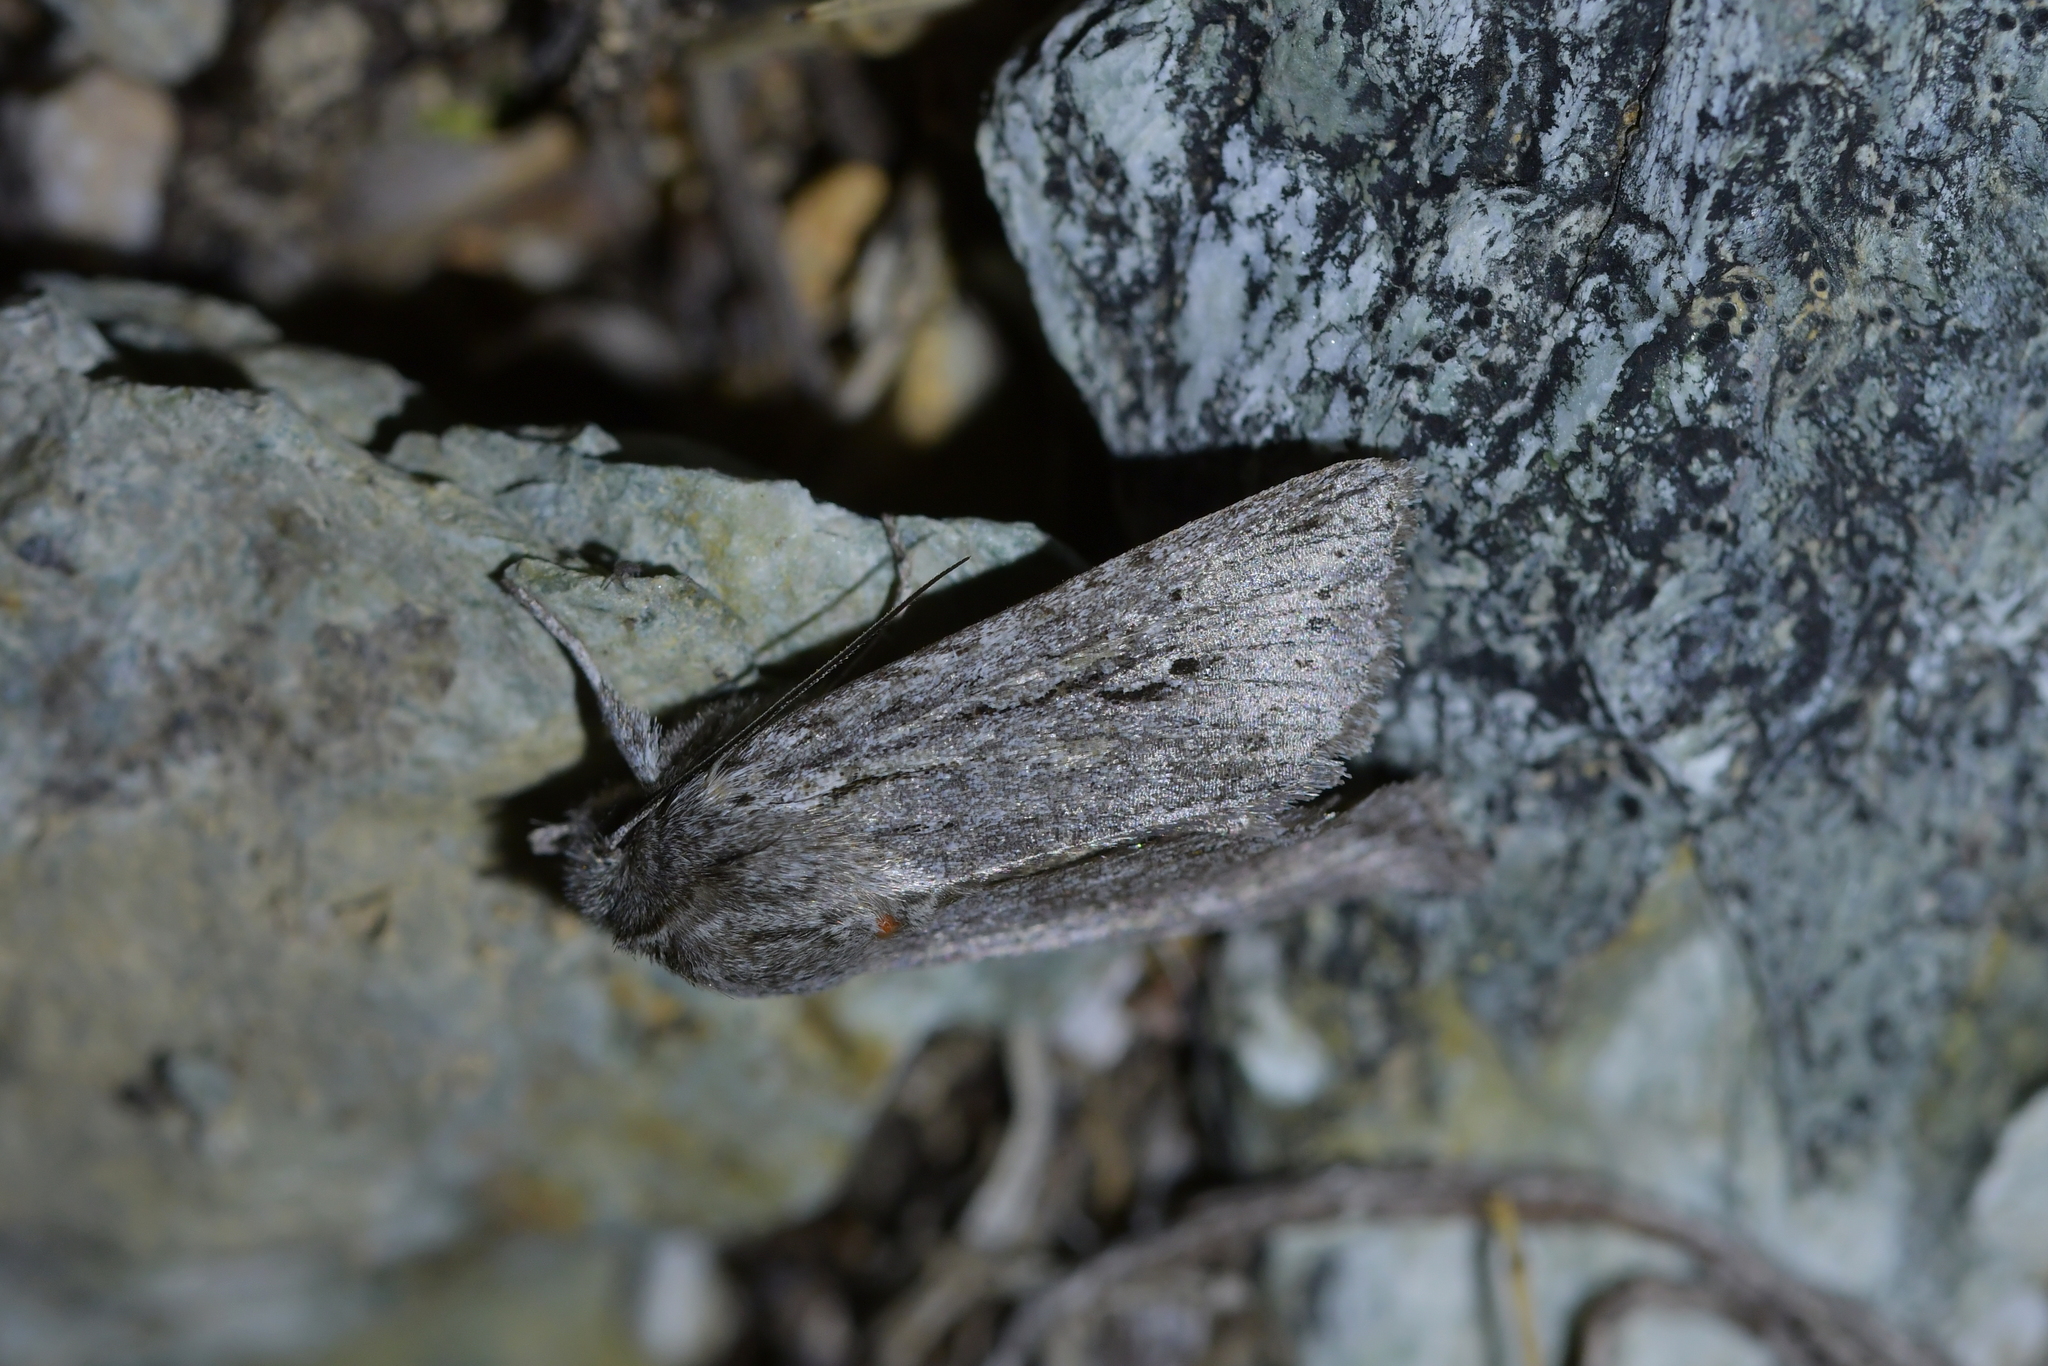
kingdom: Animalia
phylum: Arthropoda
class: Insecta
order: Lepidoptera
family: Noctuidae
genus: Physetica
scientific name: Physetica sequens
